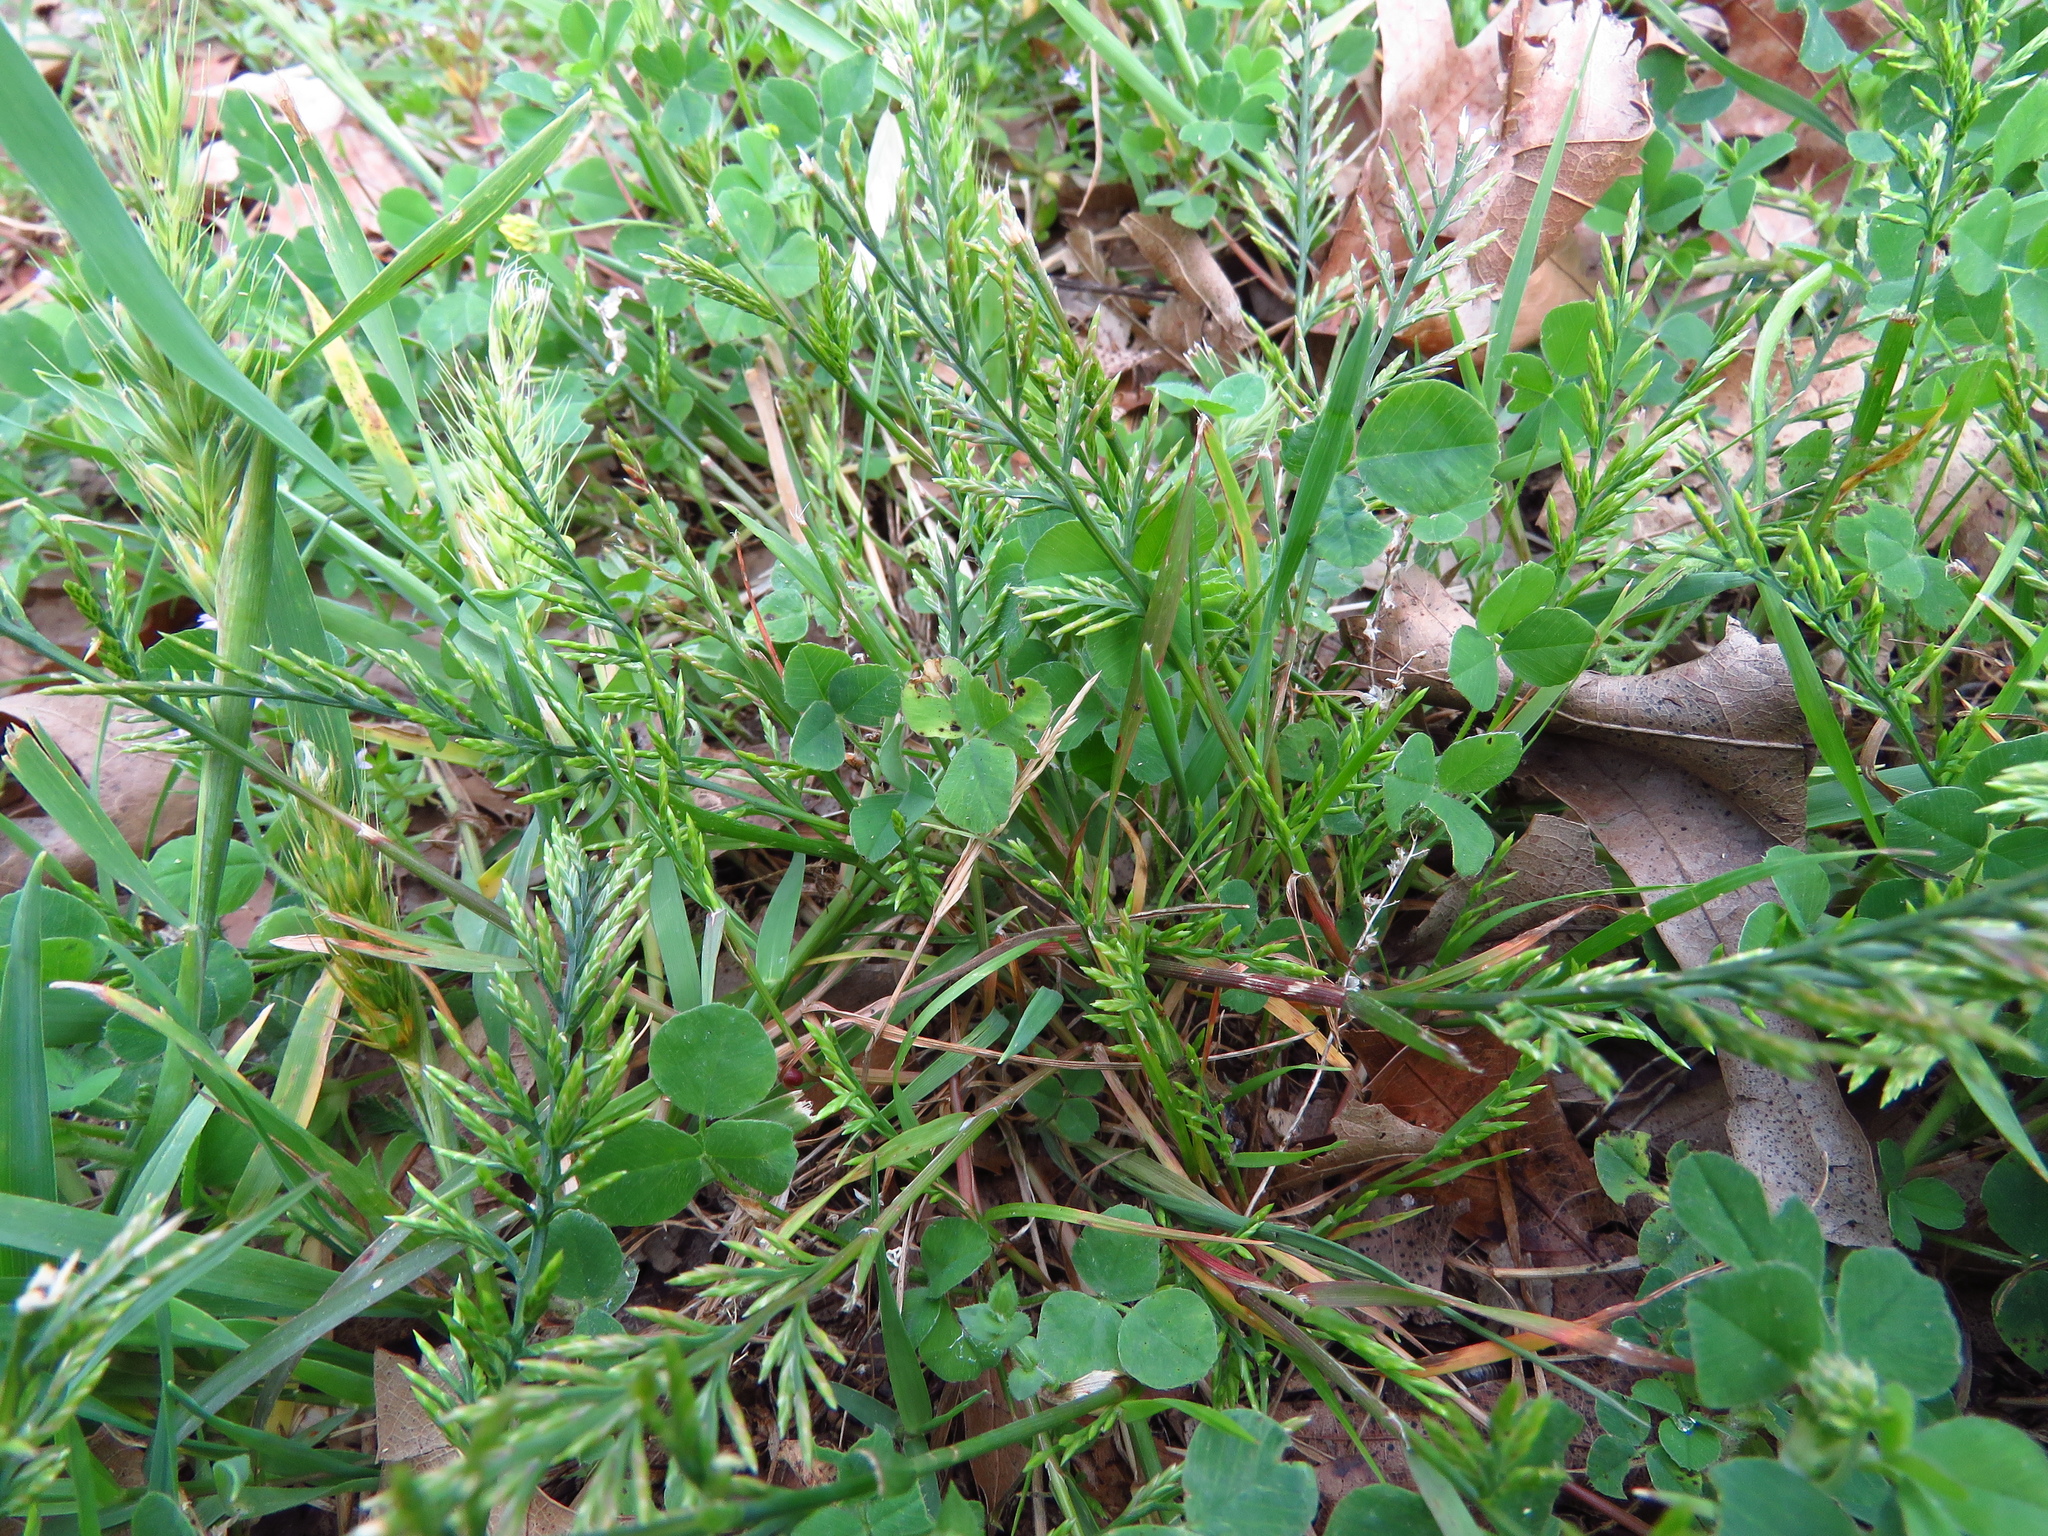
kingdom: Plantae
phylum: Tracheophyta
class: Liliopsida
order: Poales
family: Poaceae
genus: Catapodium
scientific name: Catapodium rigidum
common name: Fern-grass
